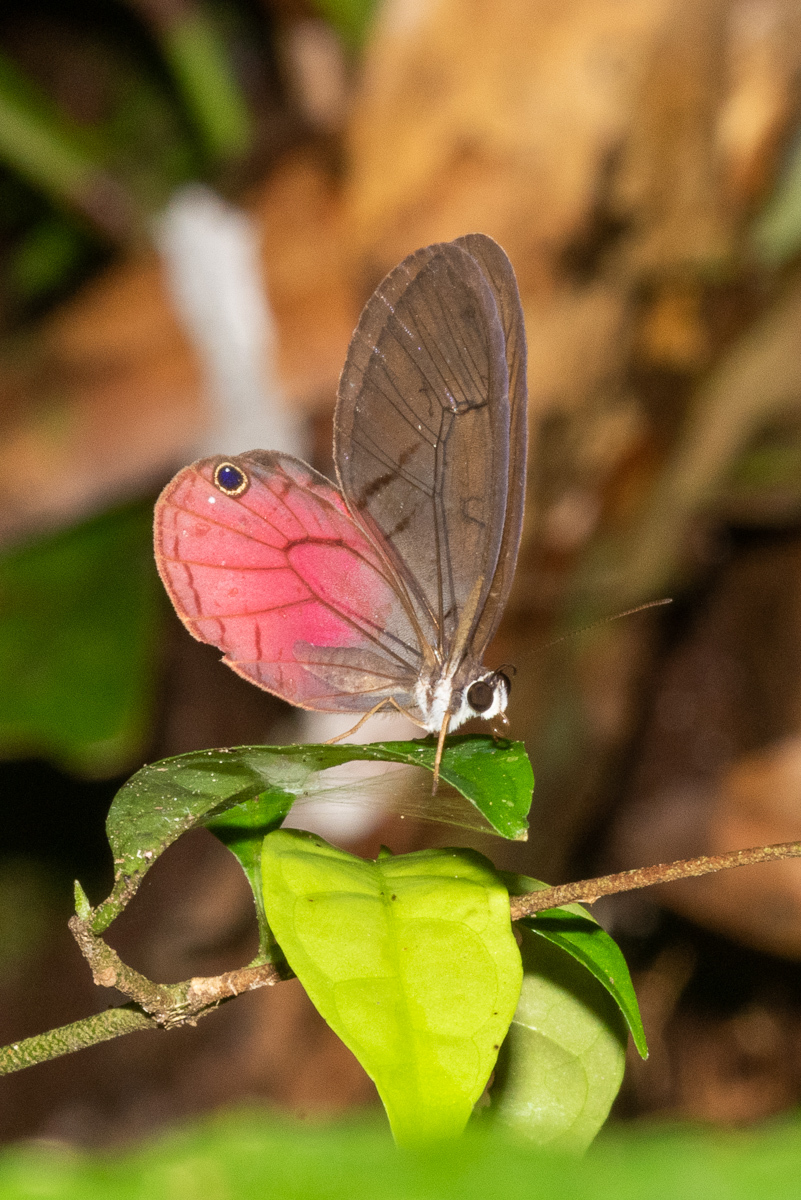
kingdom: Animalia
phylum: Arthropoda
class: Insecta
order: Lepidoptera
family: Nymphalidae
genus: Cithaerias
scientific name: Cithaerias pireta
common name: Rusted clearwing-satyr
